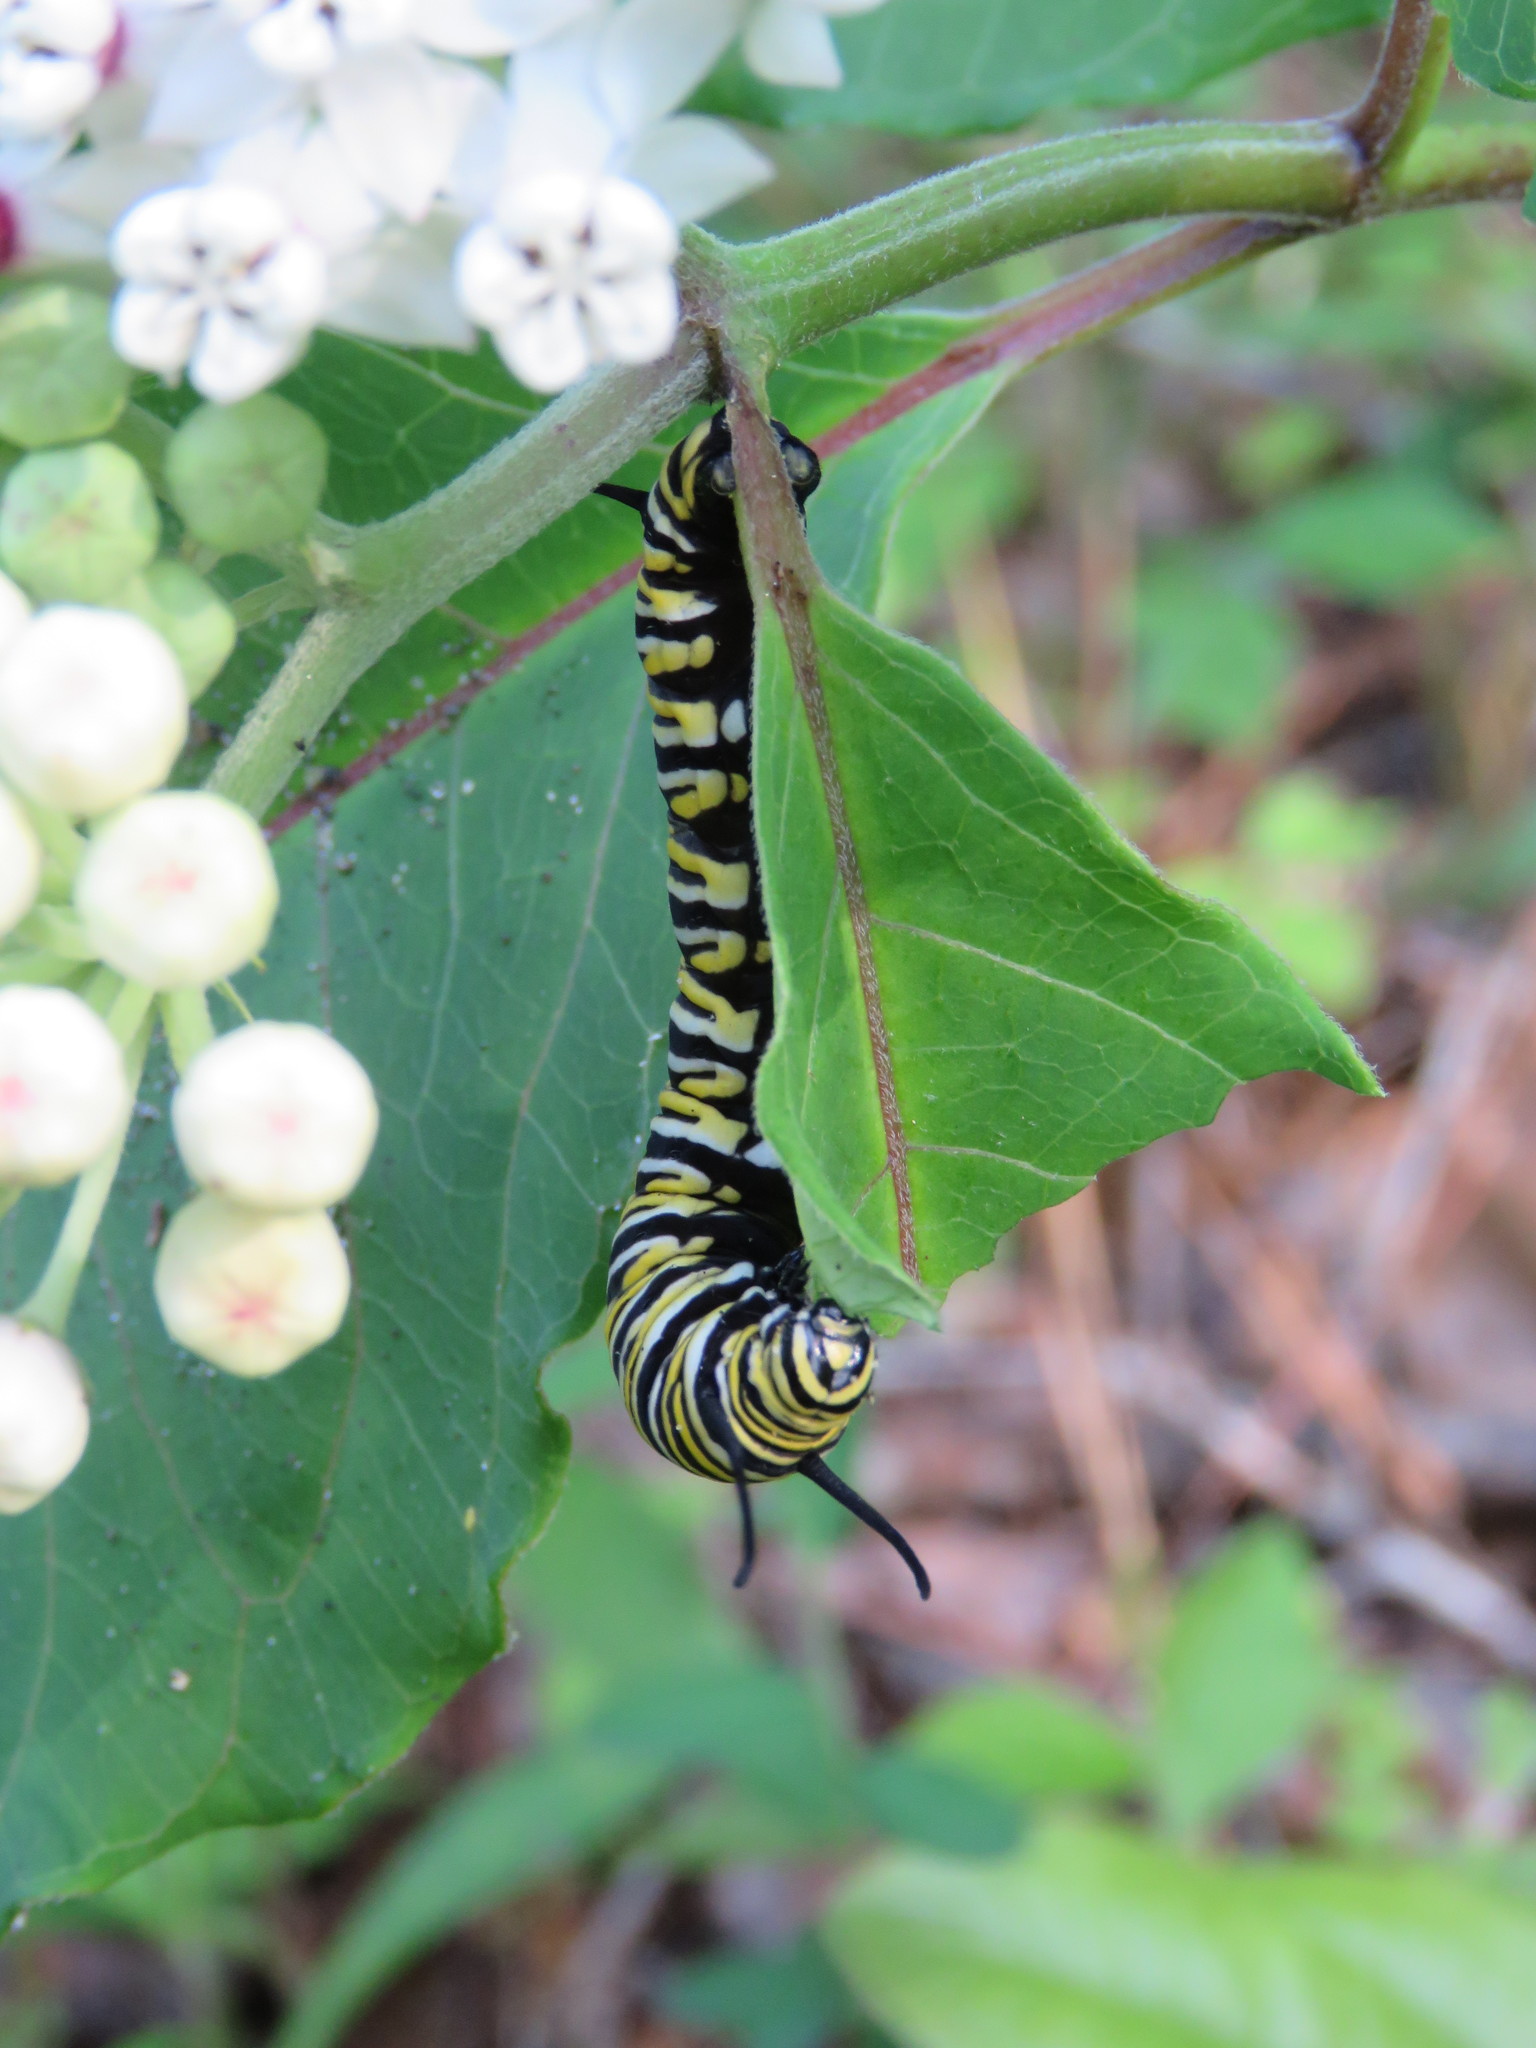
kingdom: Animalia
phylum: Arthropoda
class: Insecta
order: Lepidoptera
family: Nymphalidae
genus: Danaus
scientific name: Danaus plexippus
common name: Monarch
